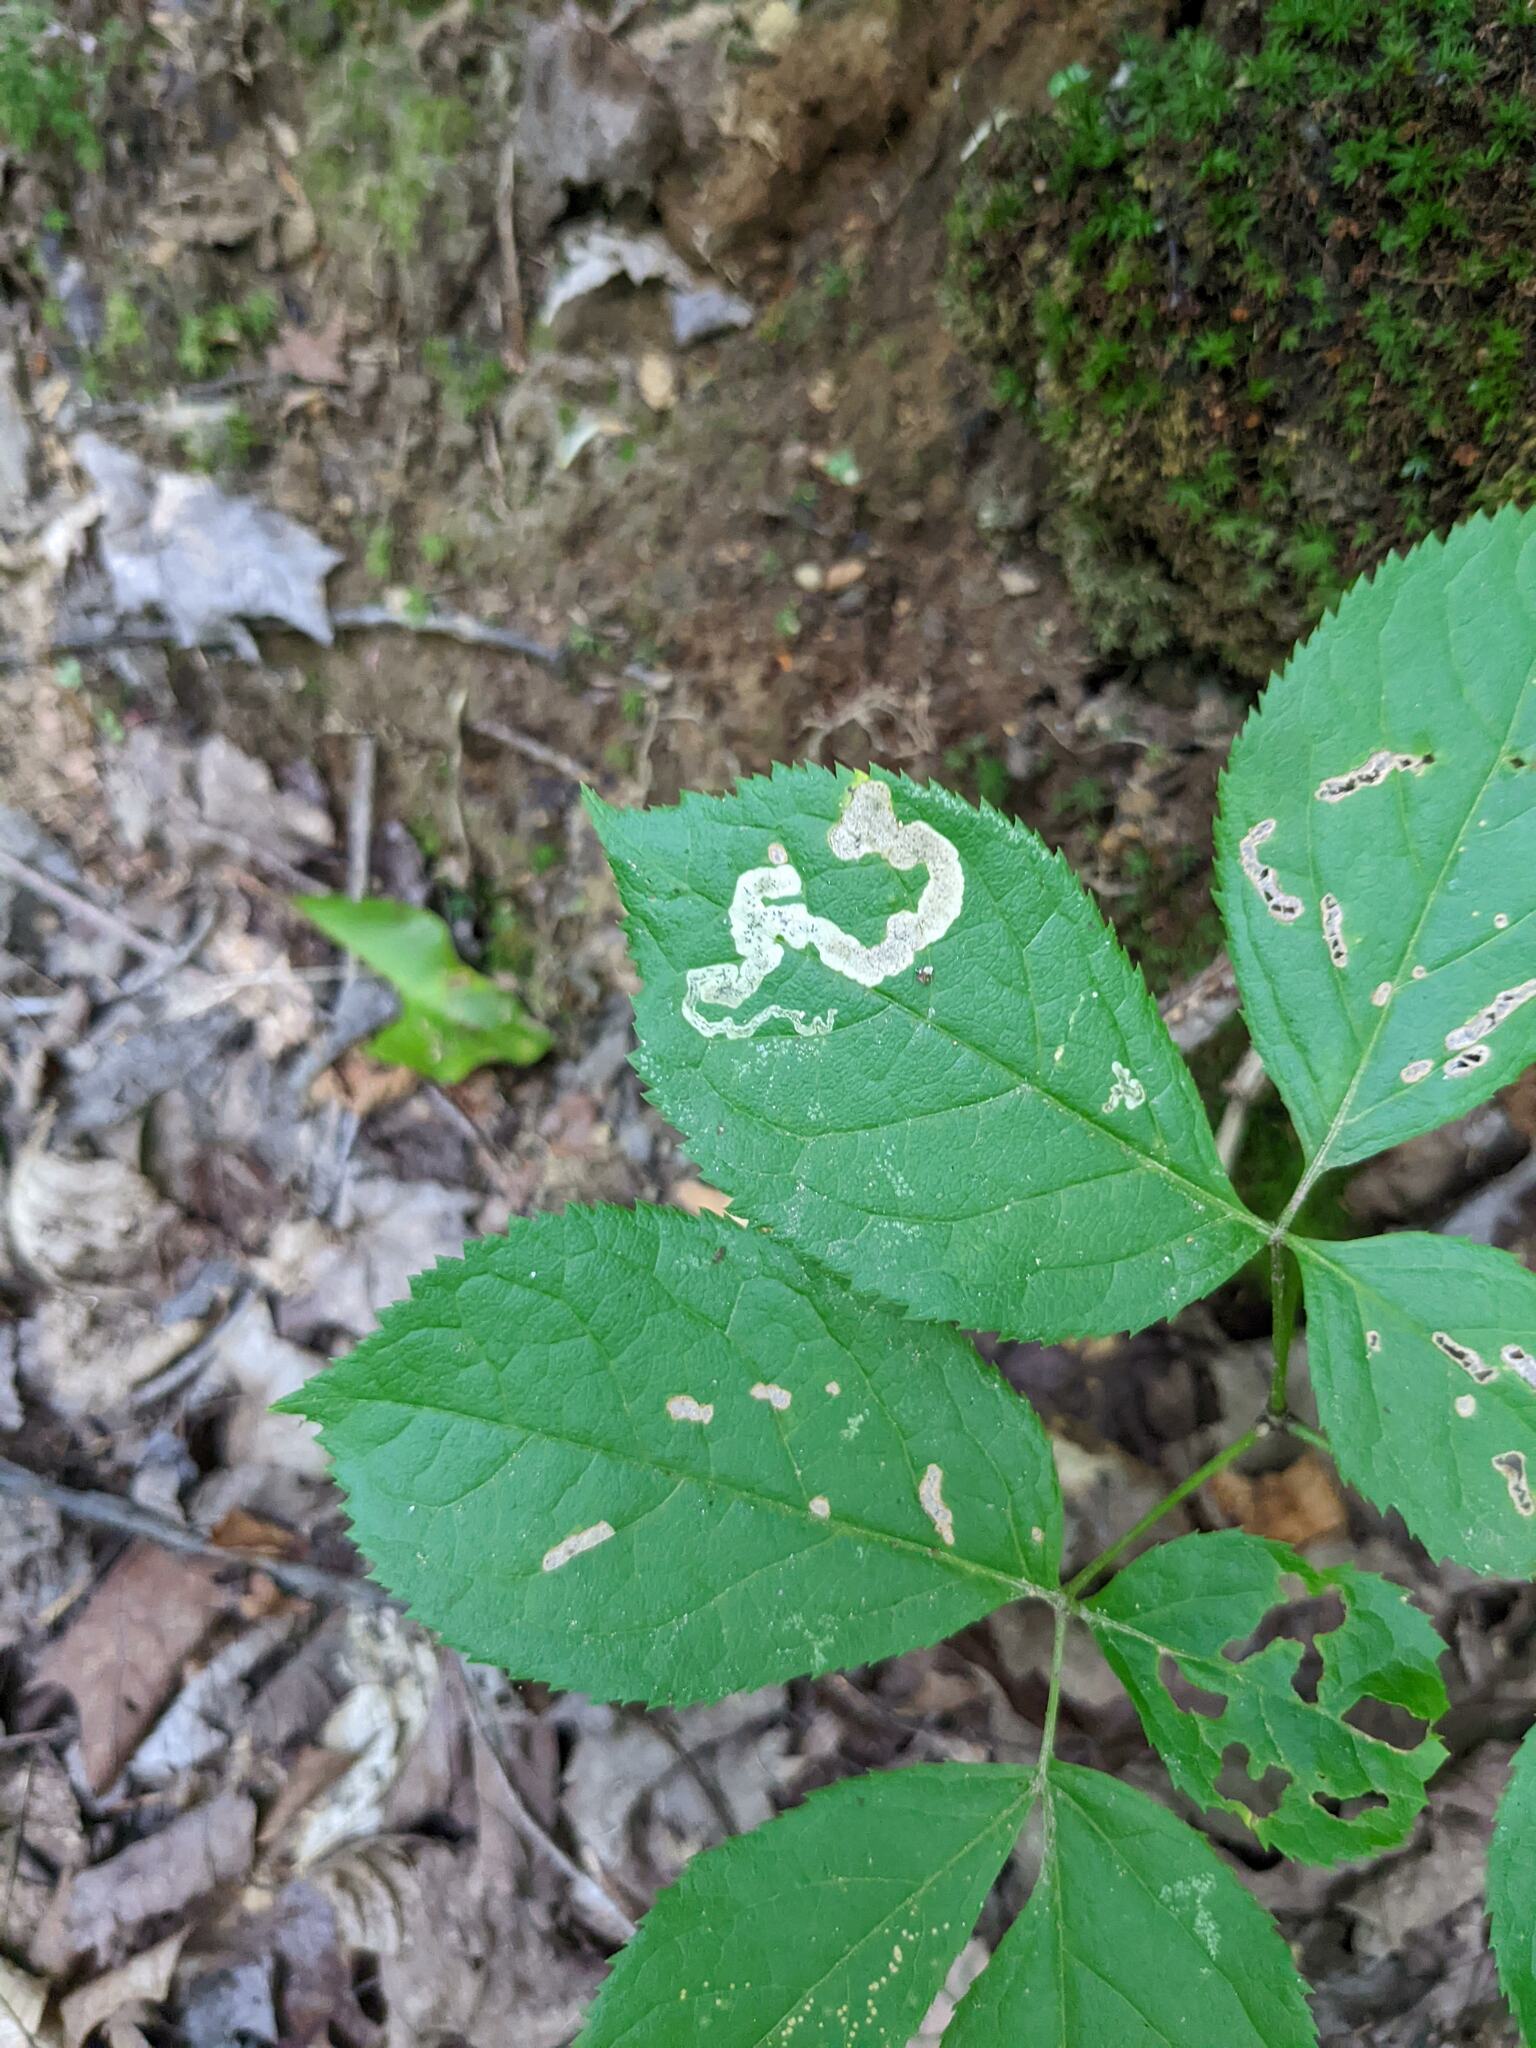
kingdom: Animalia
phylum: Arthropoda
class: Insecta
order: Diptera
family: Agromyzidae
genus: Phytomyza
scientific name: Phytomyza aralivora
